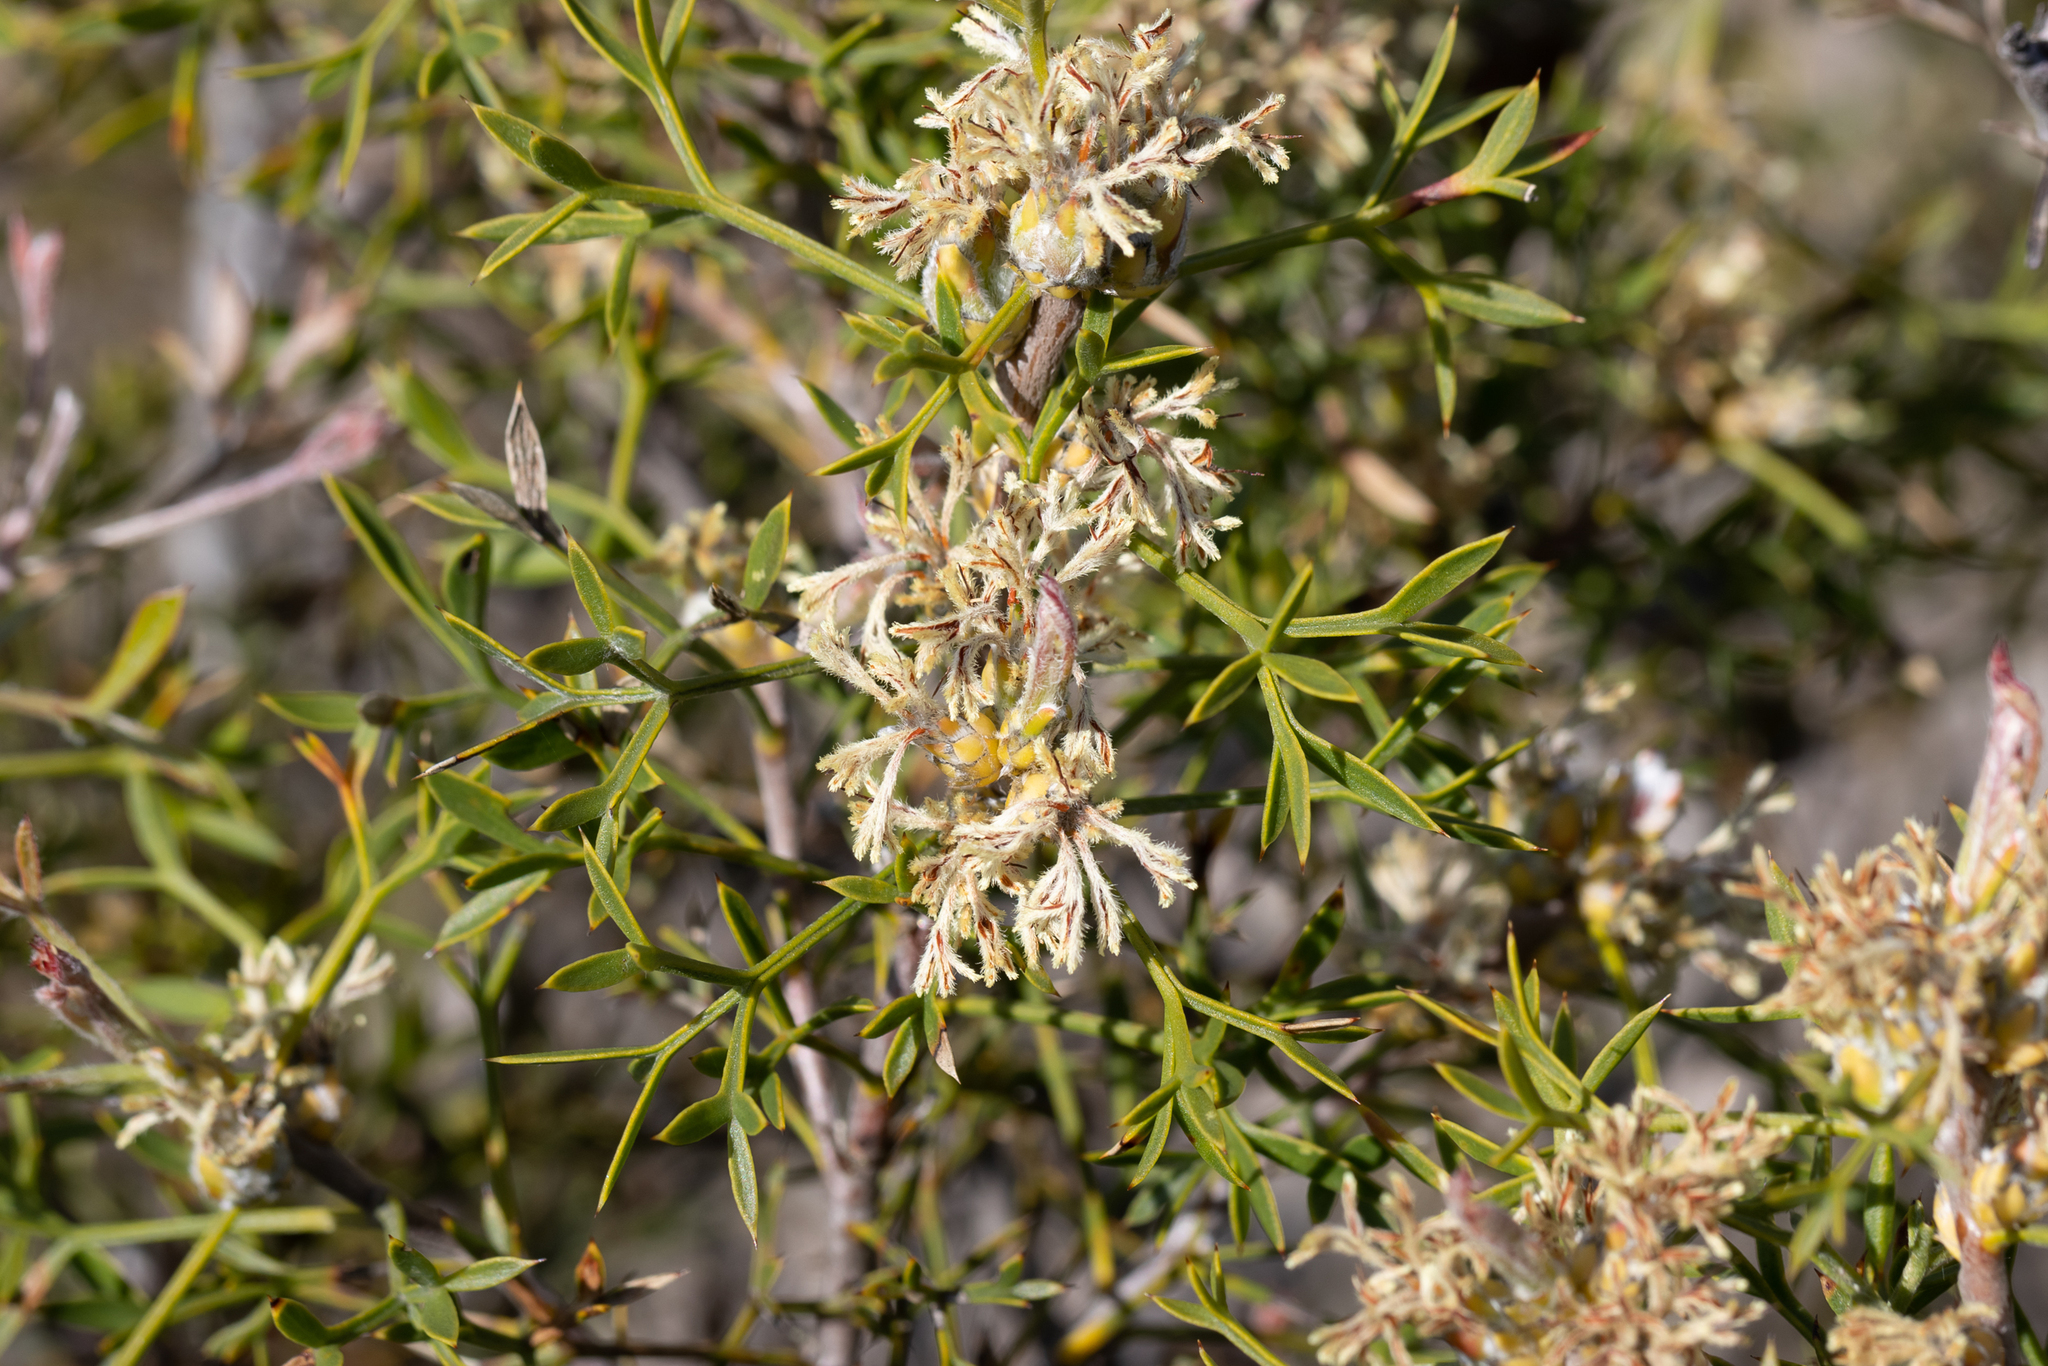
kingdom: Plantae
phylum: Tracheophyta
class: Magnoliopsida
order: Proteales
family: Proteaceae
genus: Petrophile
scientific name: Petrophile squamata
